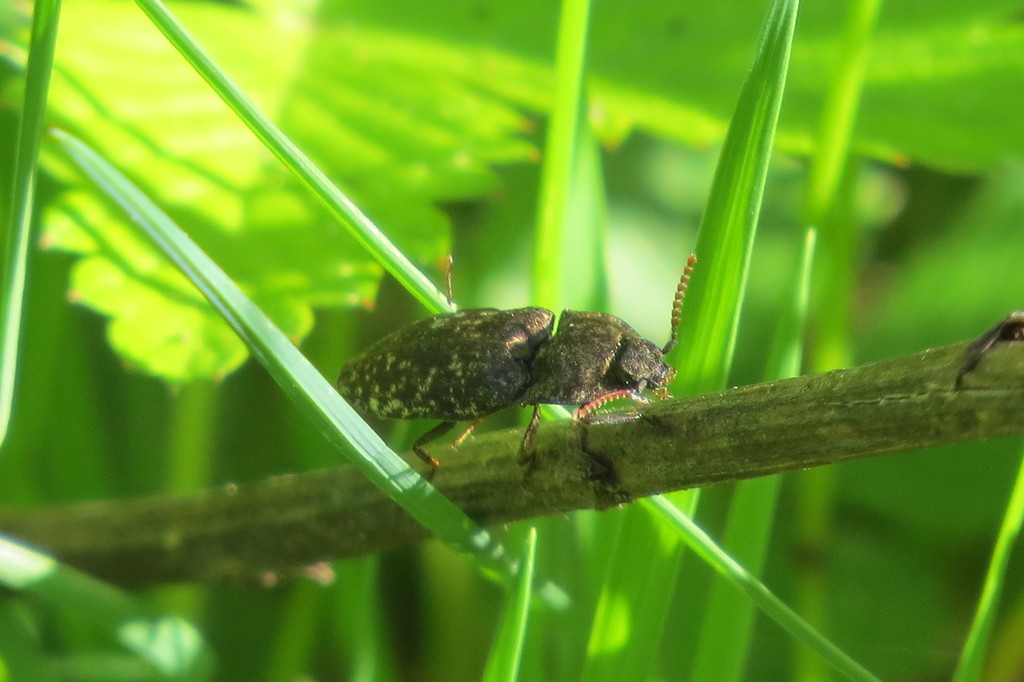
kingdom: Animalia
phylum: Arthropoda
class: Insecta
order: Coleoptera
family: Elateridae
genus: Agrypnus
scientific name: Agrypnus murinus
